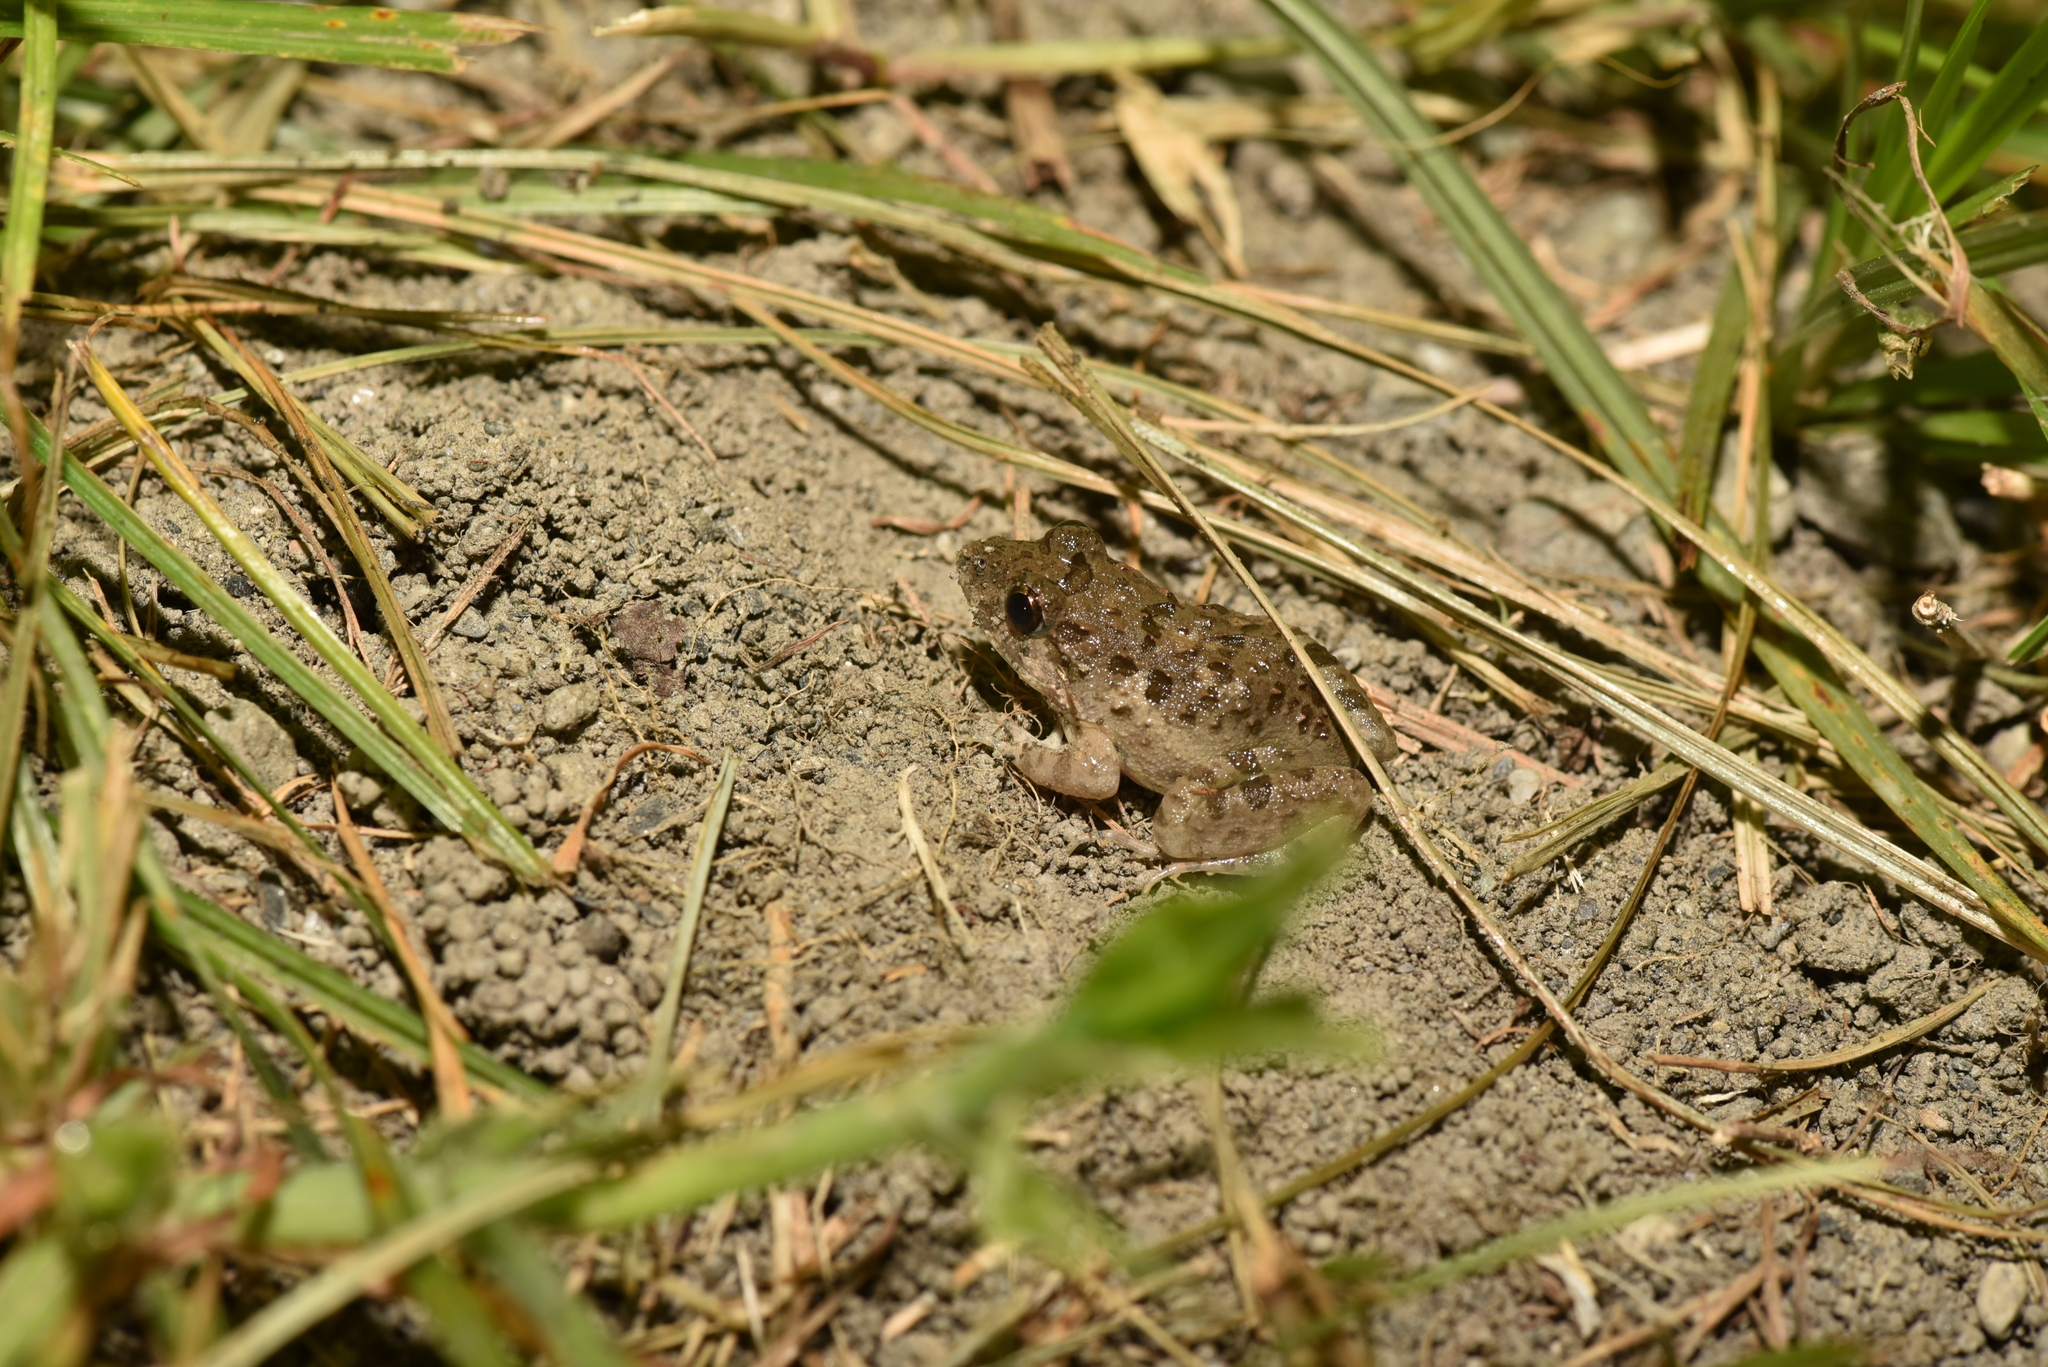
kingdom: Animalia
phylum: Chordata
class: Amphibia
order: Anura
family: Dicroglossidae
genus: Fejervarya
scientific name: Fejervarya limnocharis
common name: Asian grass frog/common pond frog/field frog/grass frog/indian rice frog
